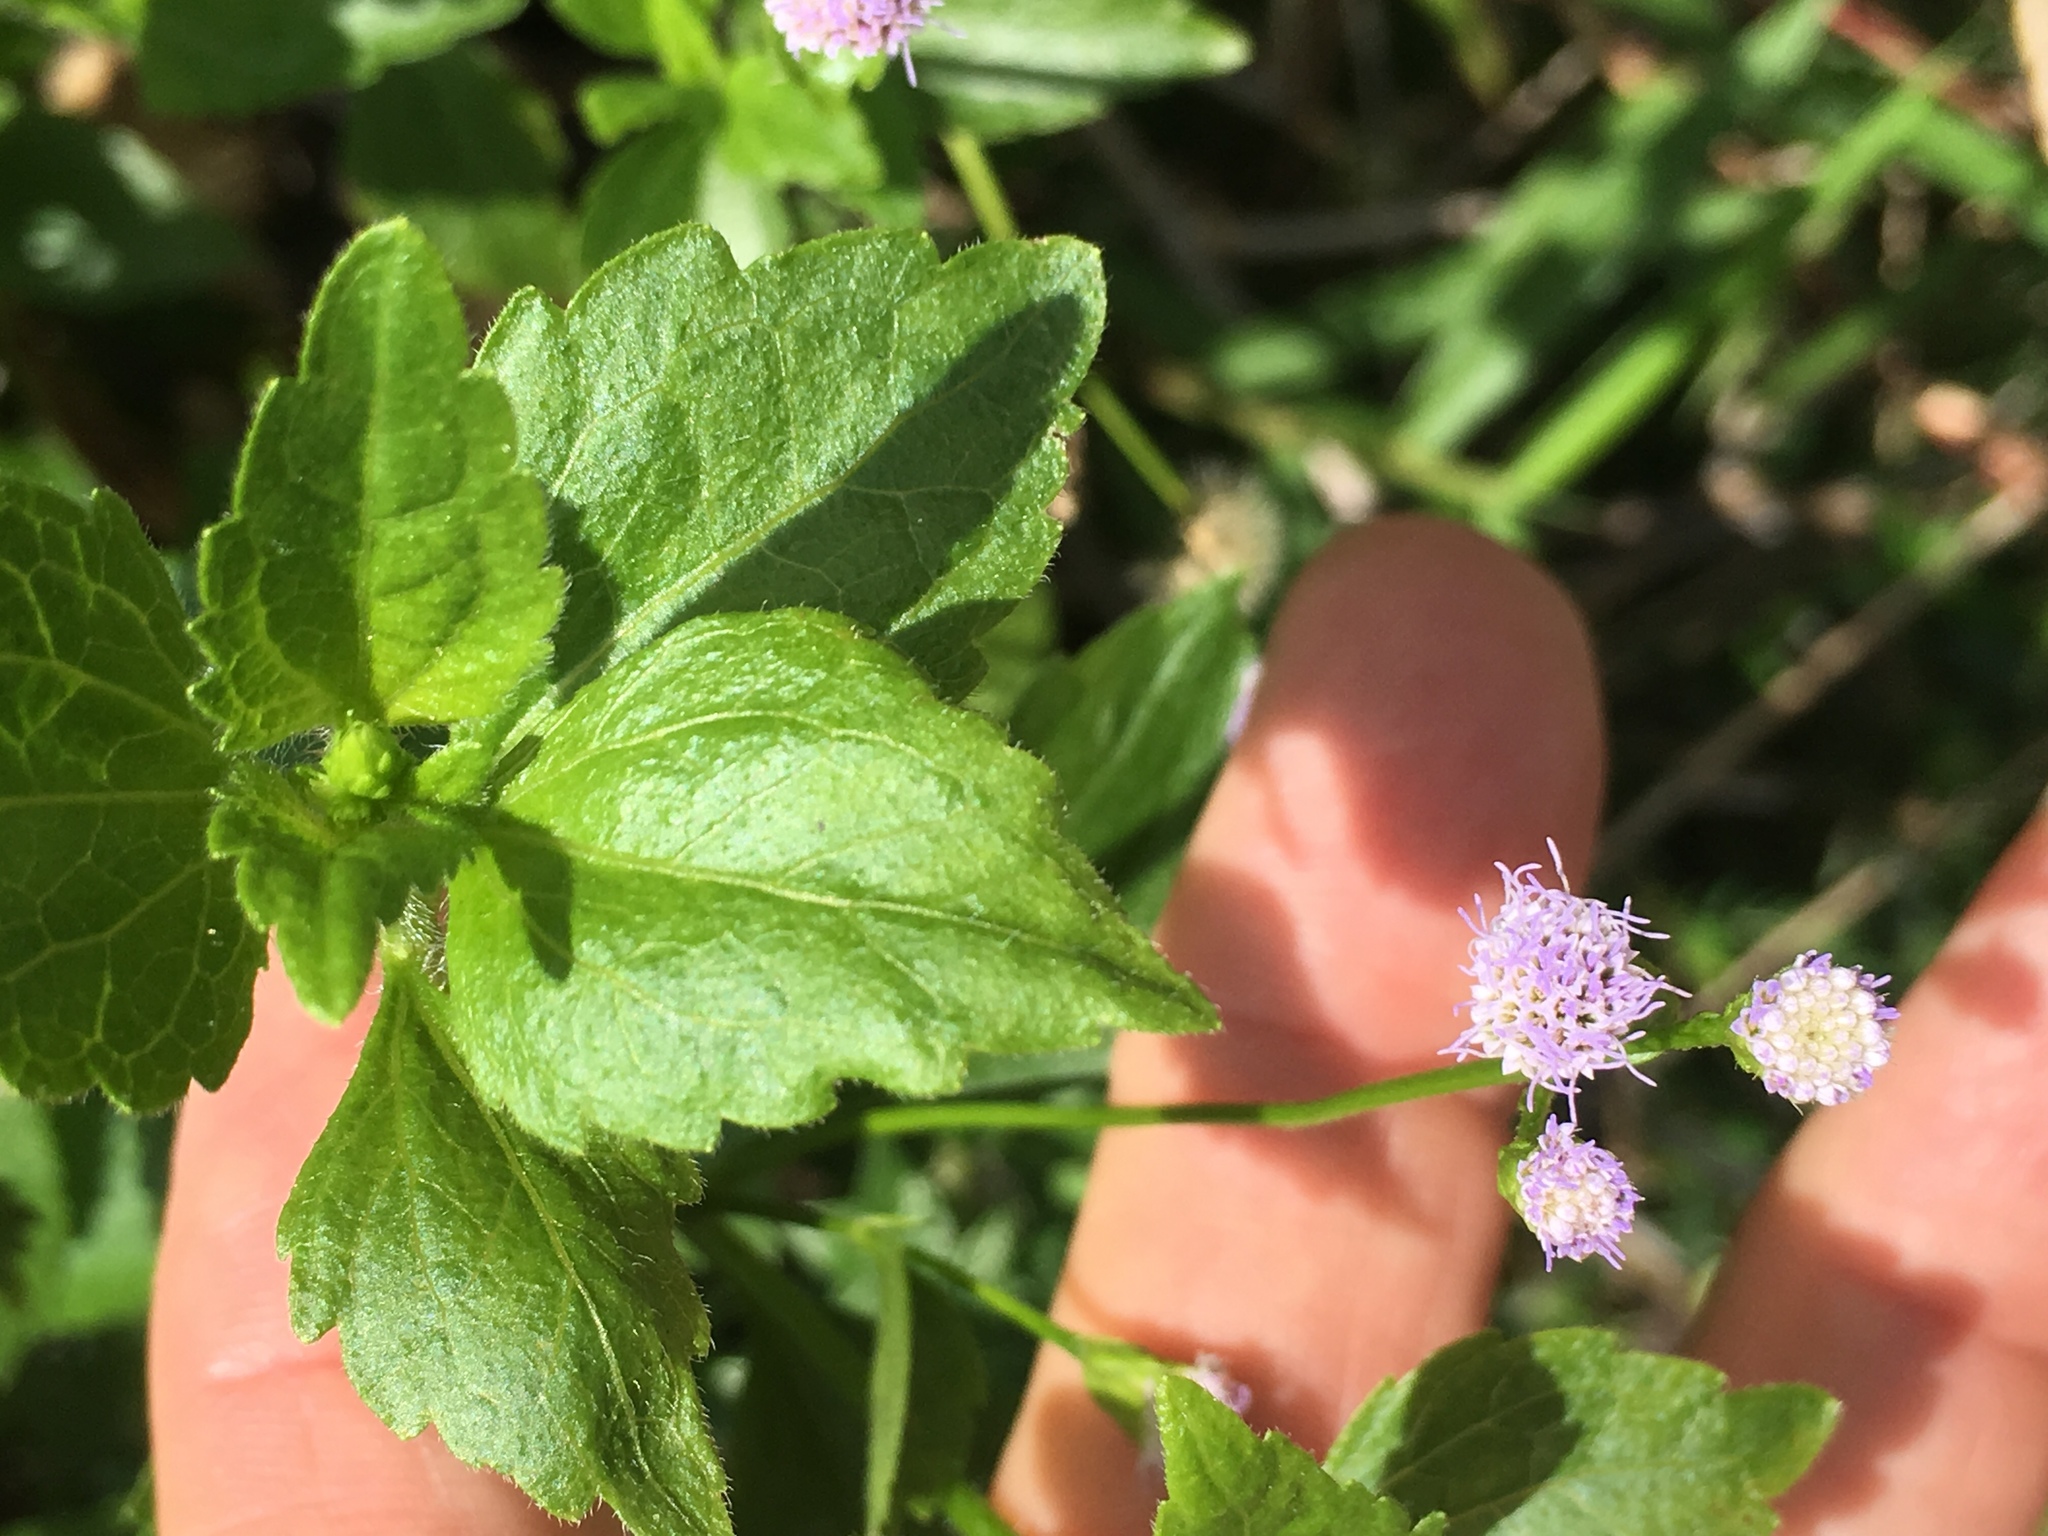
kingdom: Plantae
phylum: Tracheophyta
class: Magnoliopsida
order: Asterales
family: Asteraceae
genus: Praxelis
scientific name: Praxelis clematidea
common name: Praxelis
